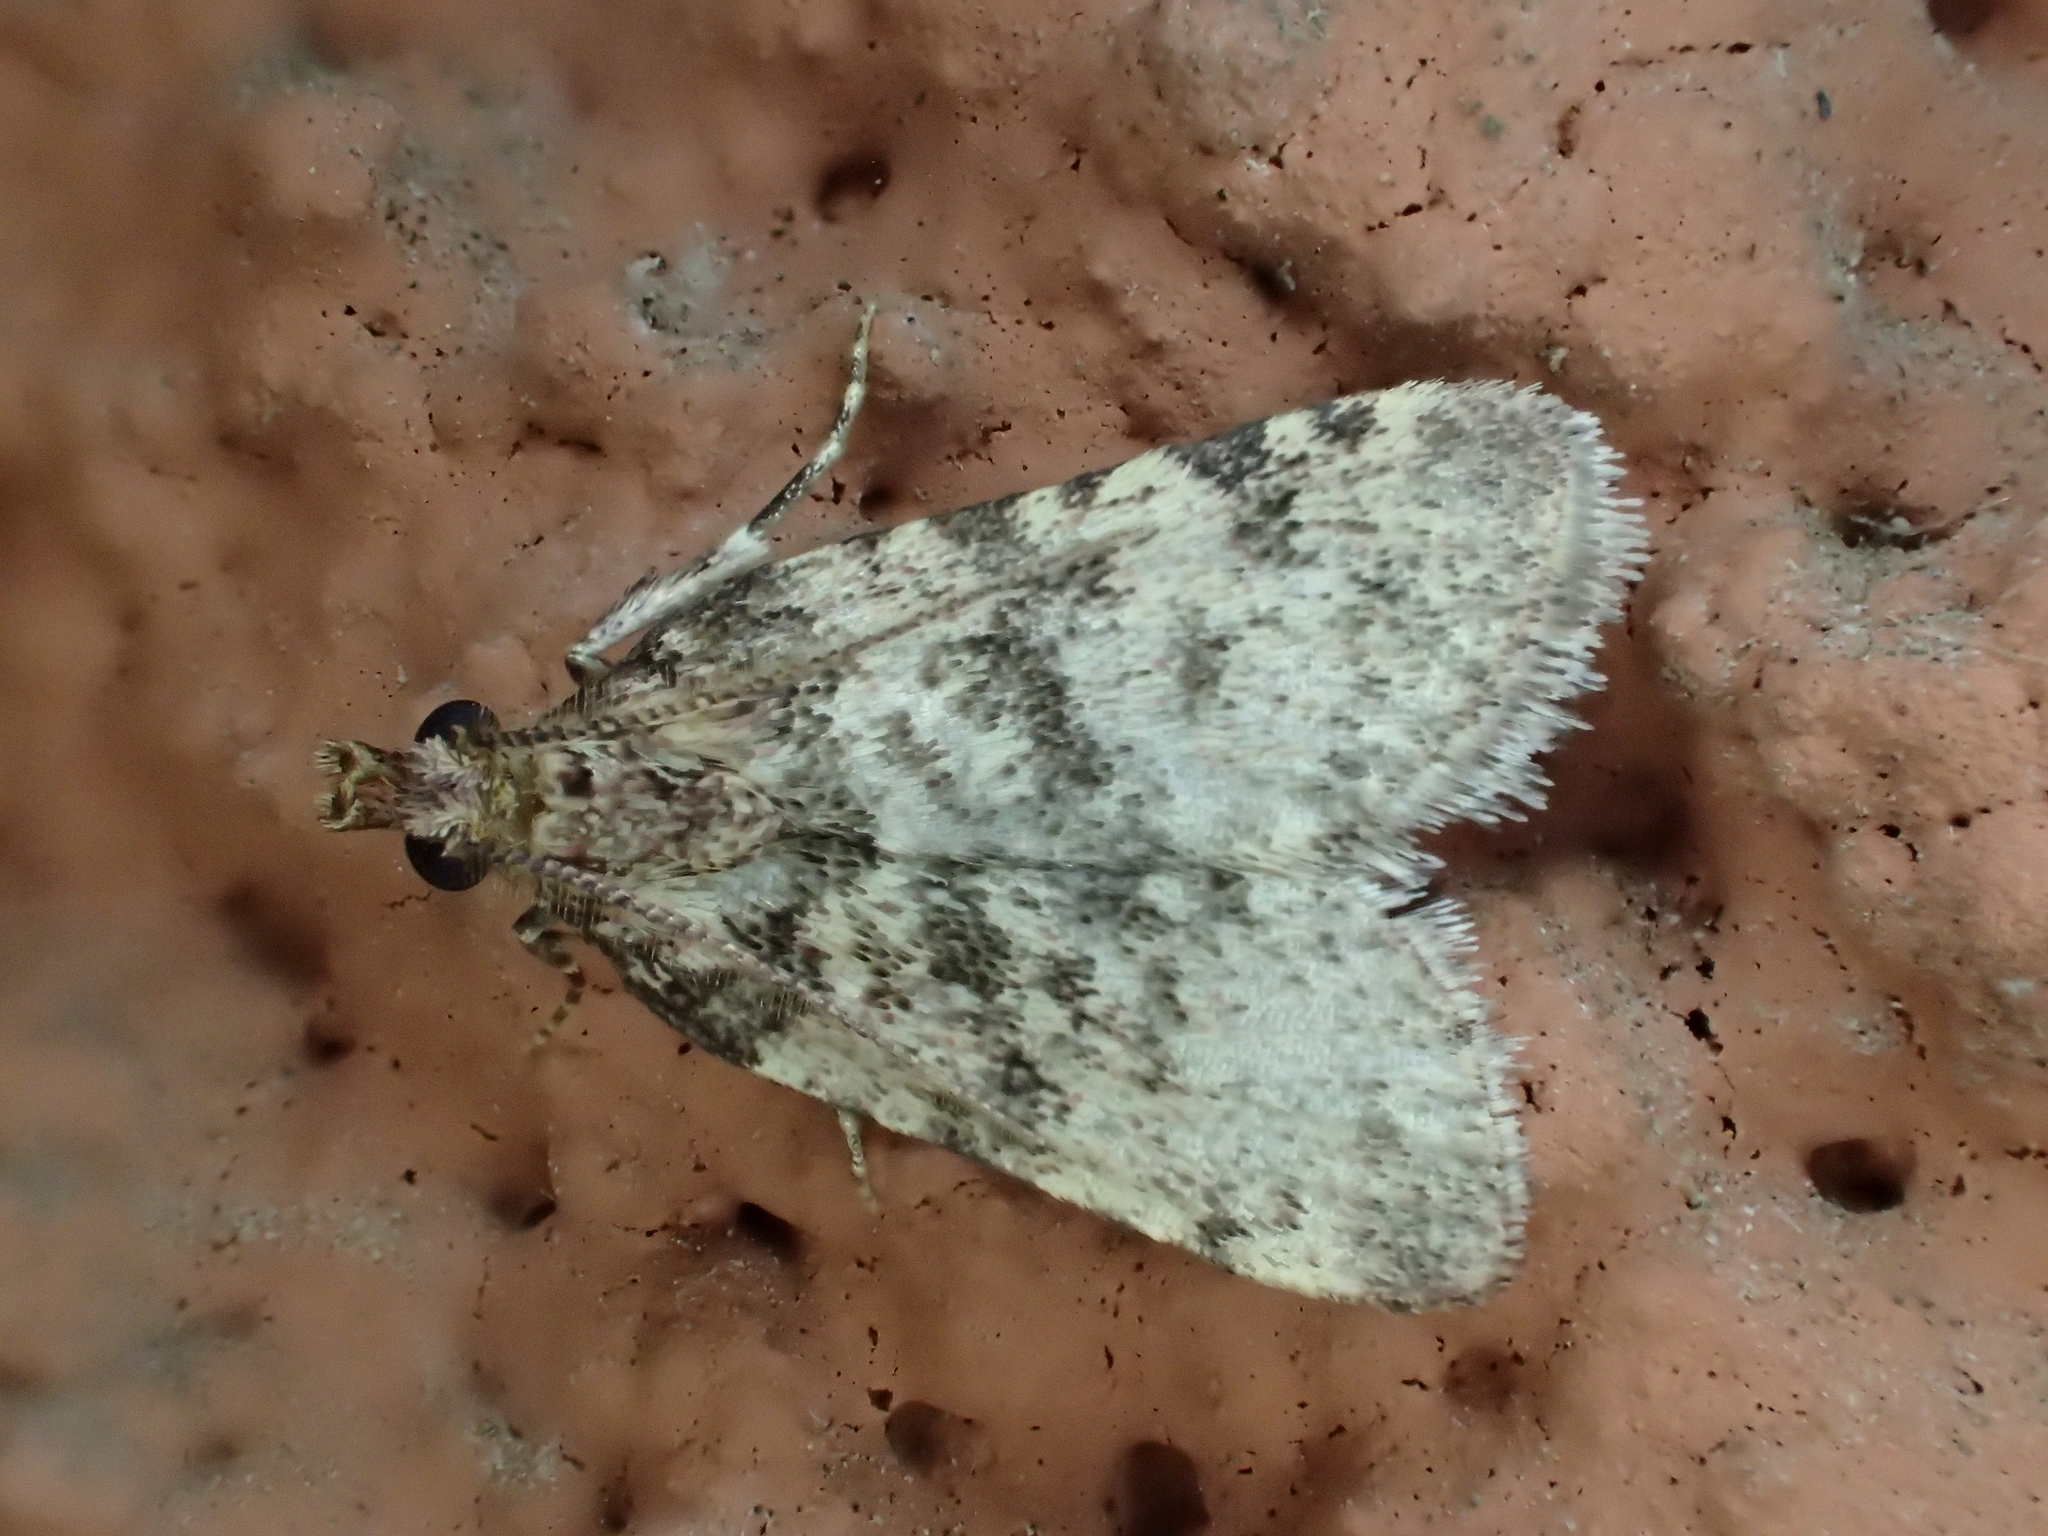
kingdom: Animalia
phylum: Arthropoda
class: Insecta
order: Lepidoptera
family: Pyralidae
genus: Aglossa
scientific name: Aglossa brabanti
